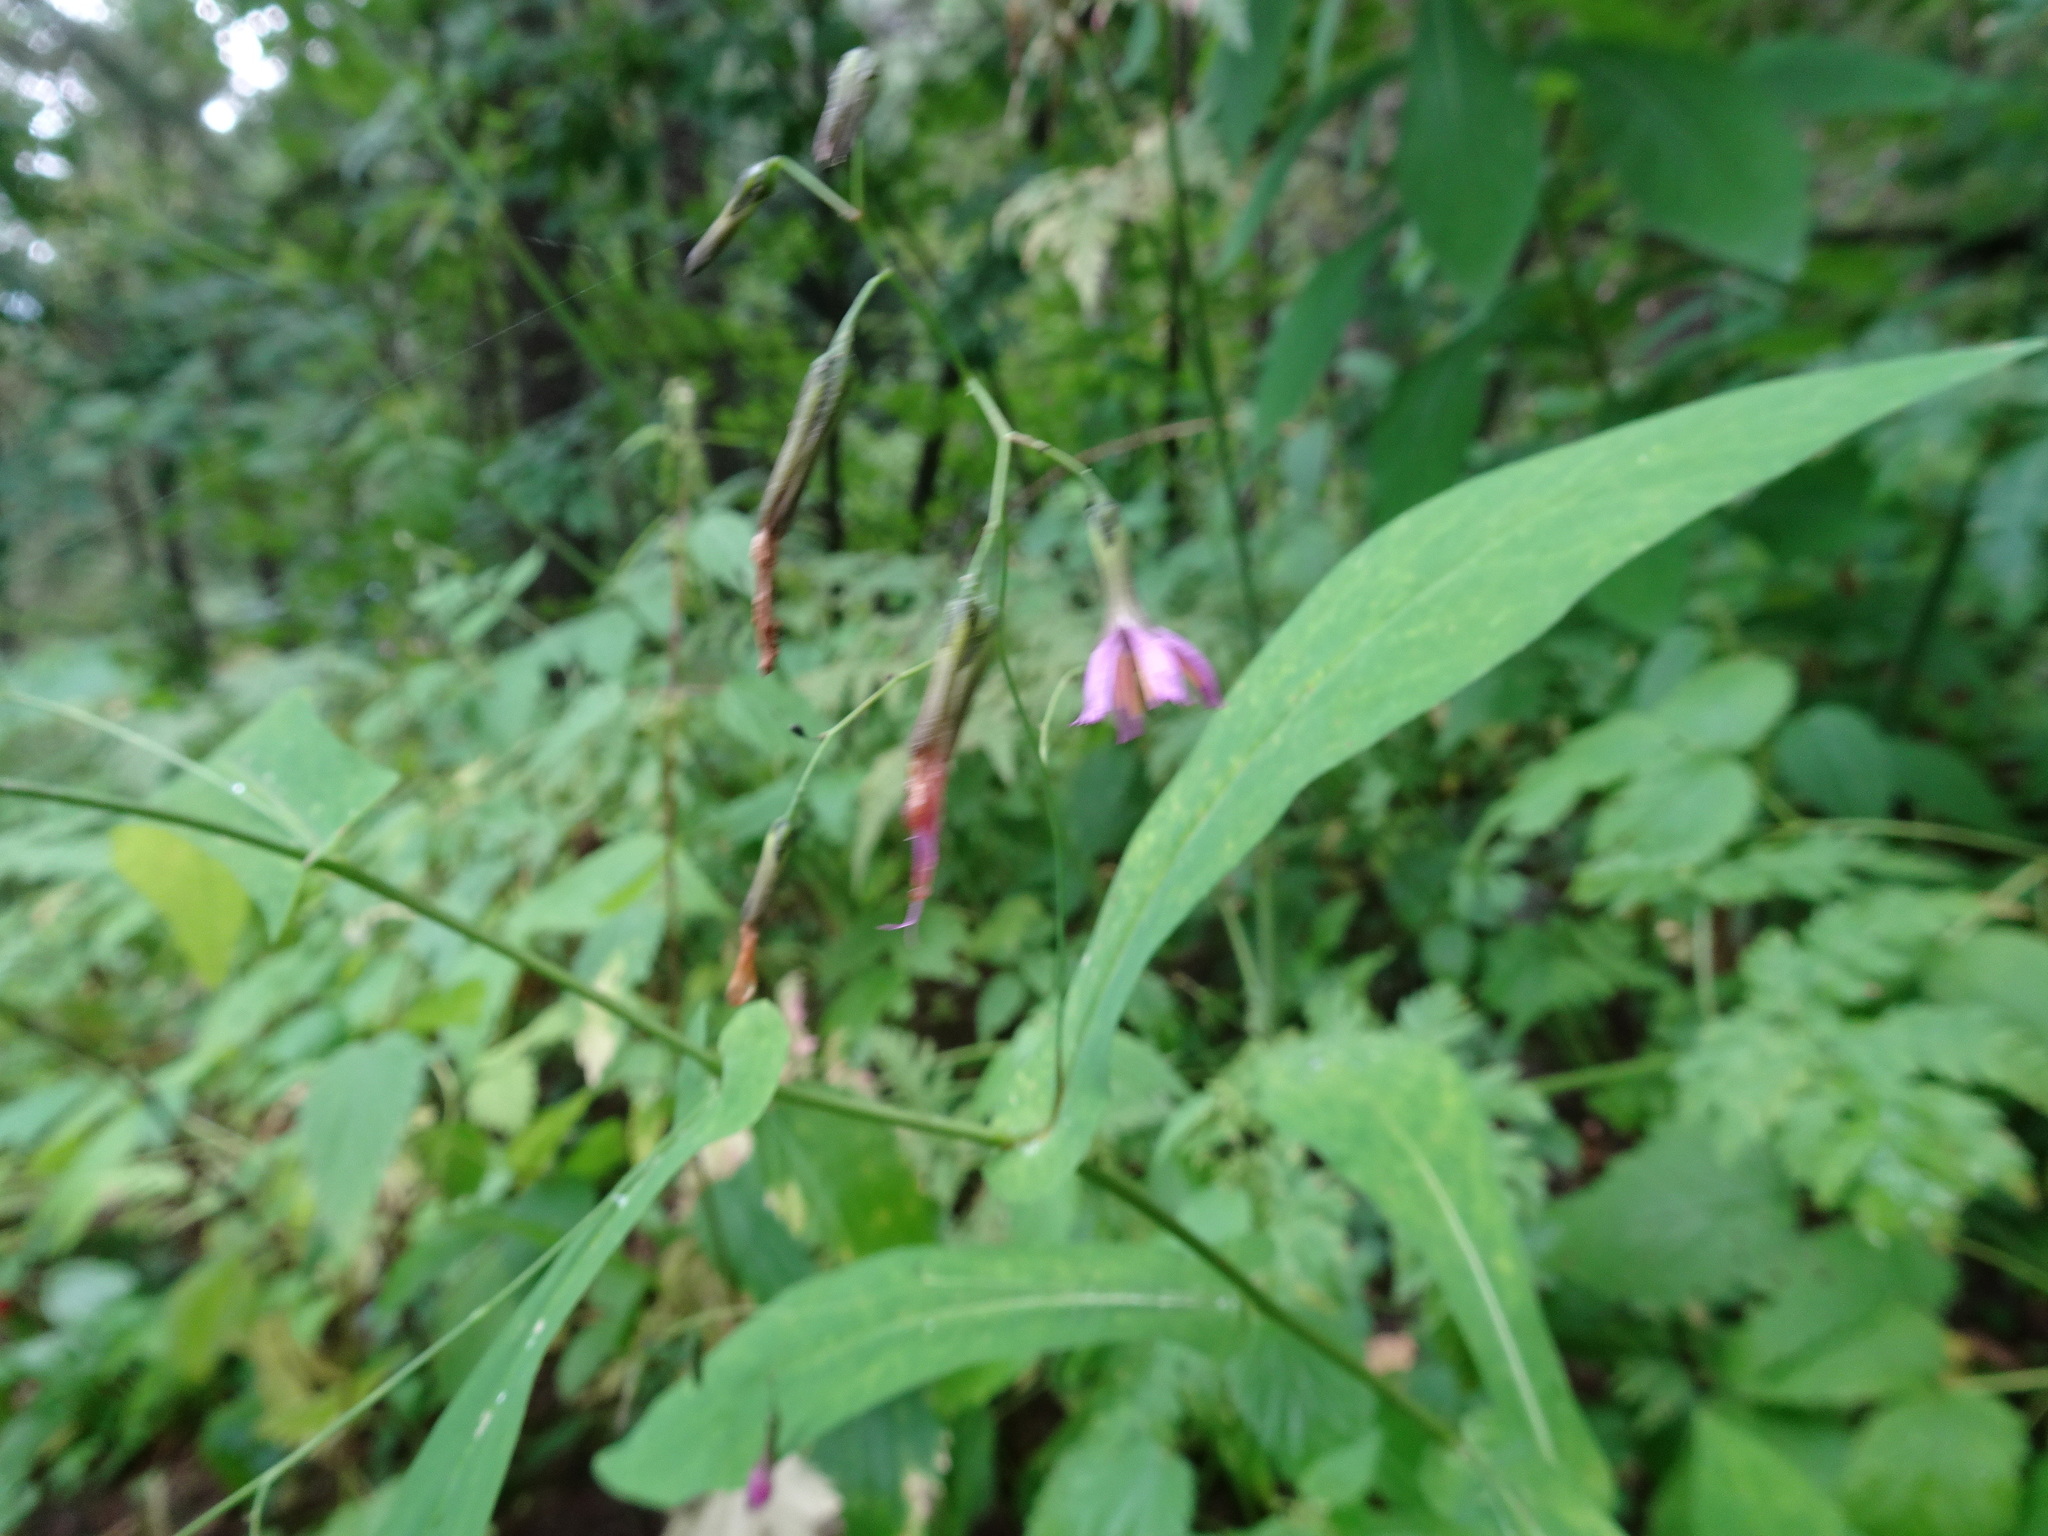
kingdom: Plantae
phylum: Tracheophyta
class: Magnoliopsida
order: Asterales
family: Asteraceae
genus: Prenanthes
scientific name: Prenanthes purpurea
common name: Purple lettuce
